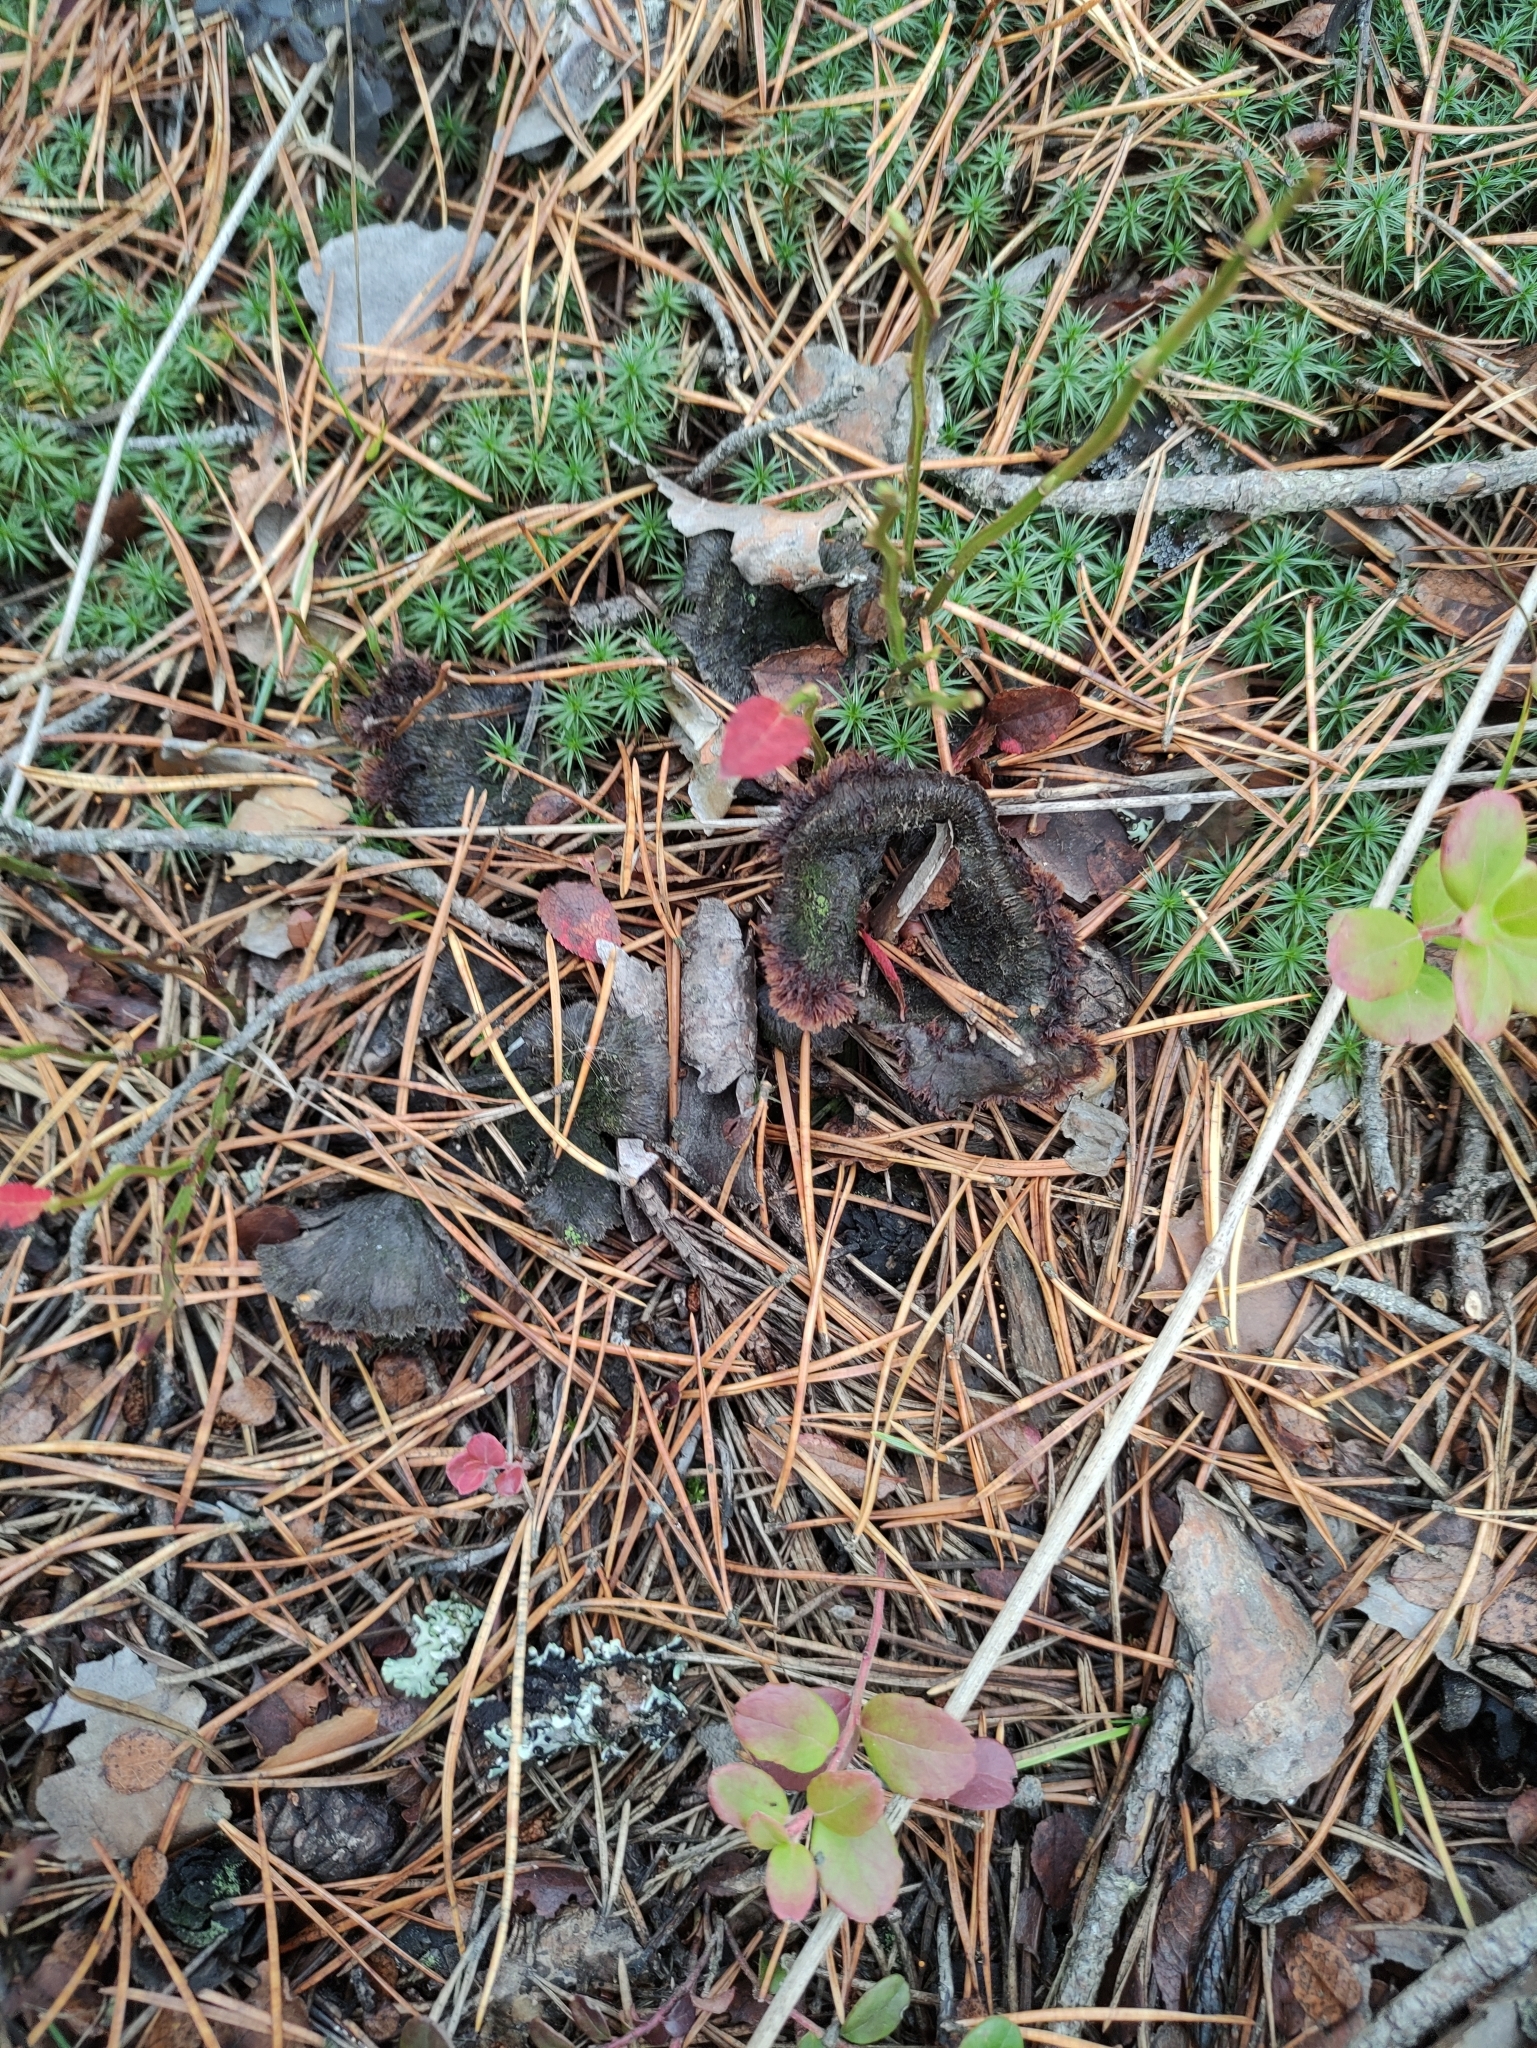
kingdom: Fungi
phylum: Basidiomycota
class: Agaricomycetes
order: Thelephorales
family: Thelephoraceae
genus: Thelephora
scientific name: Thelephora terrestris
